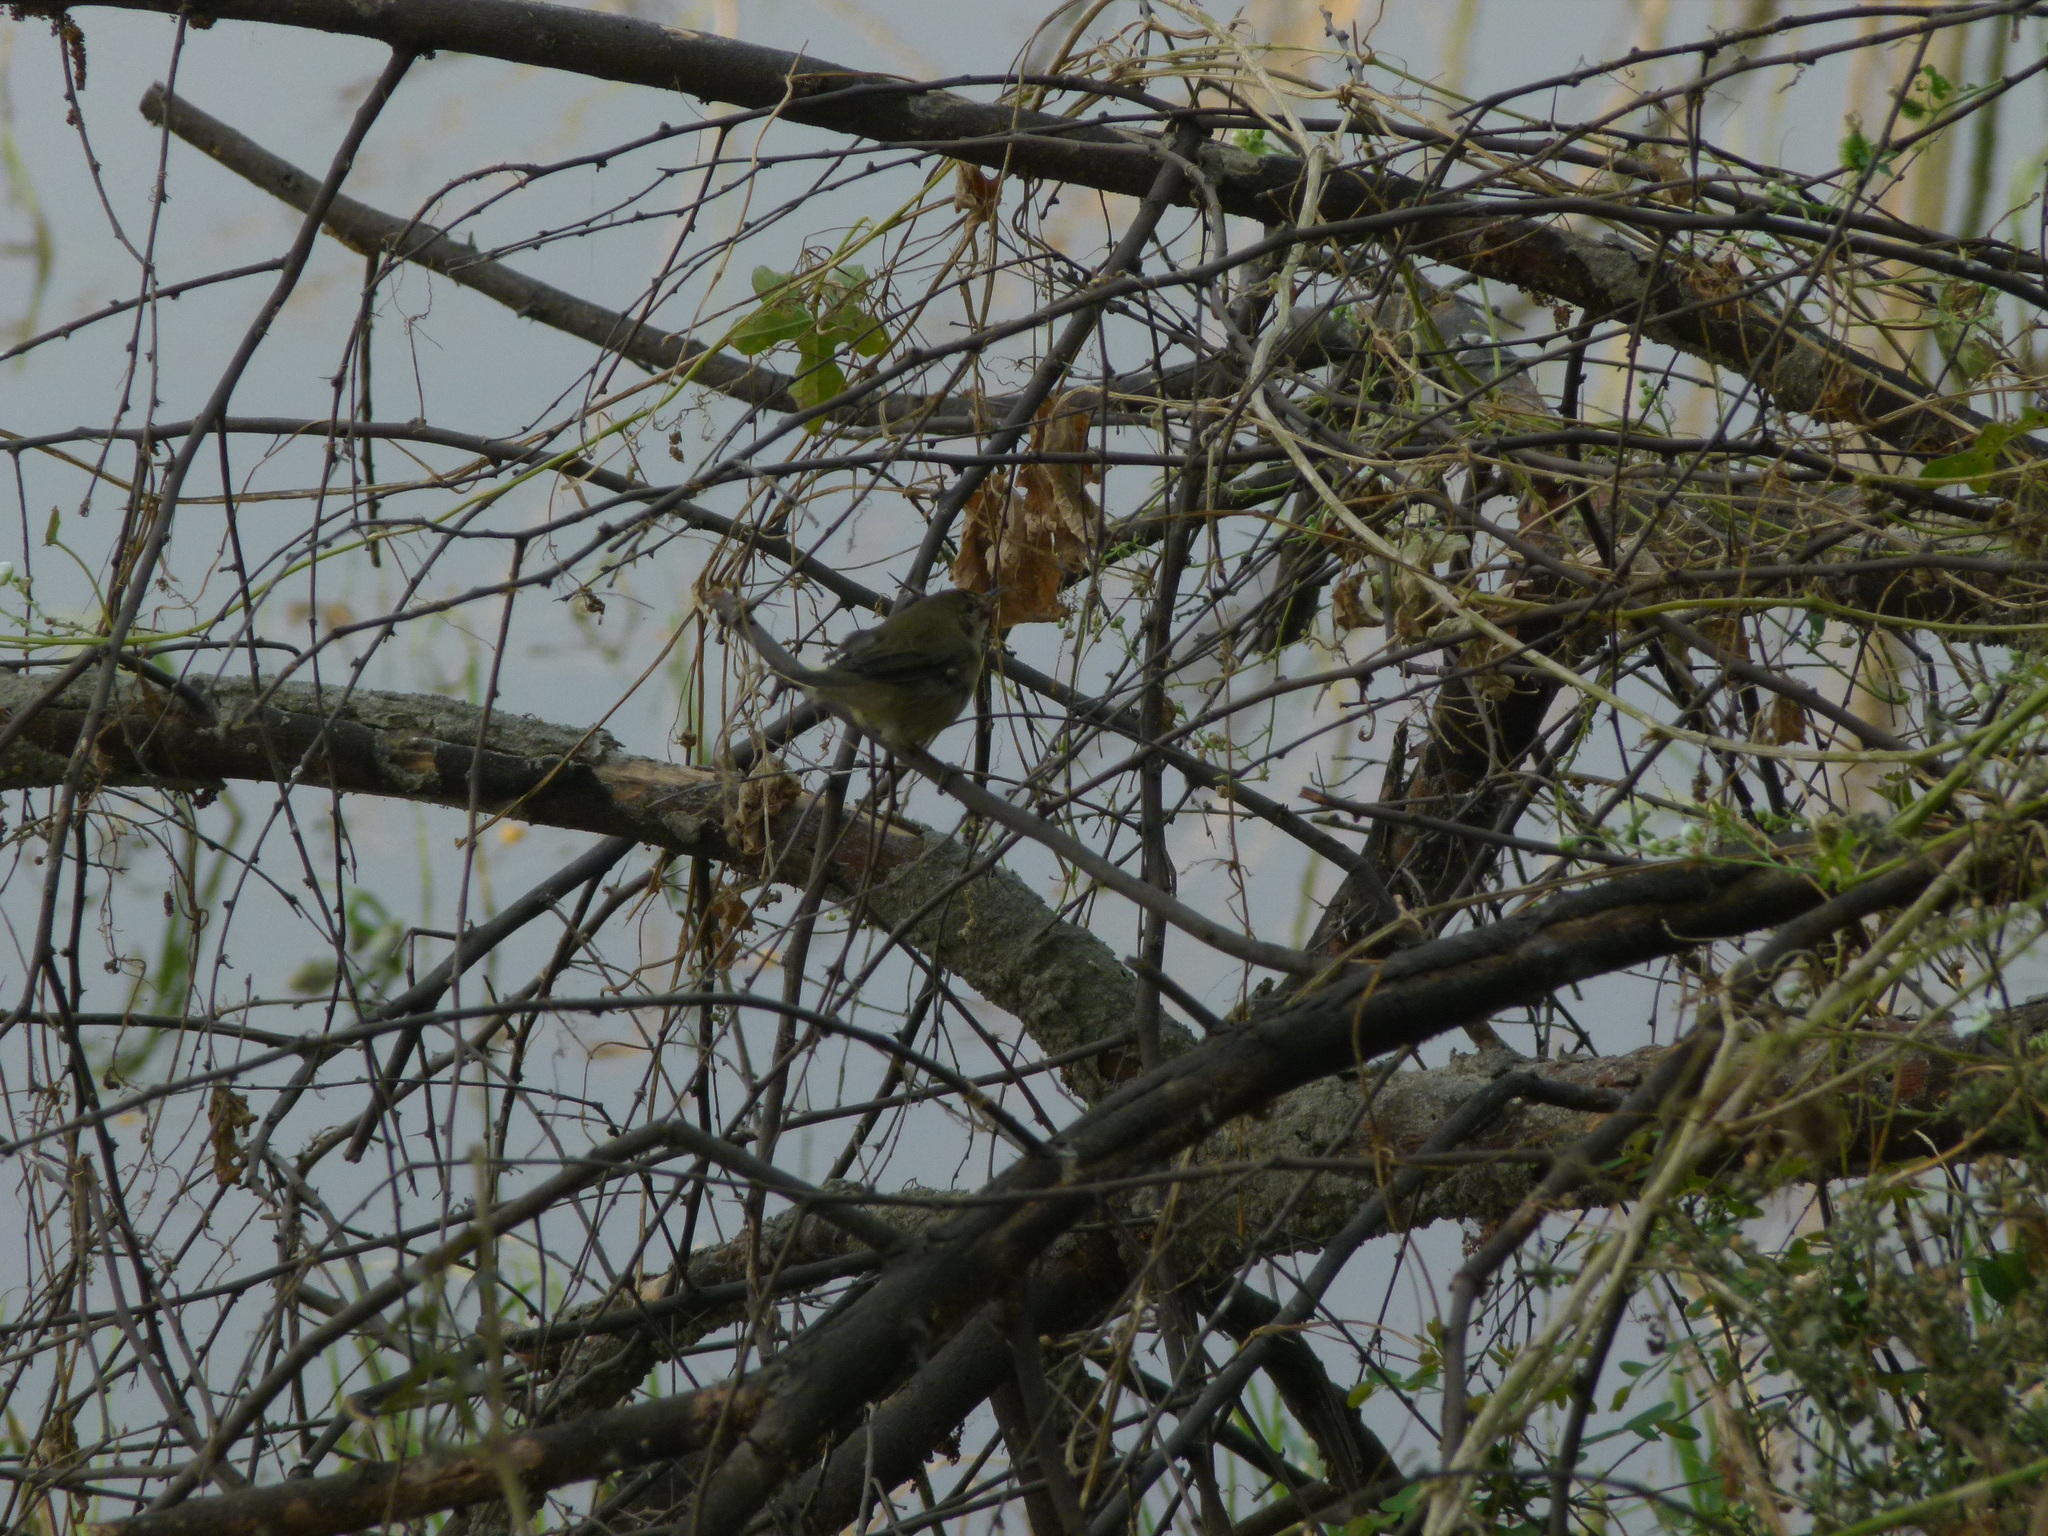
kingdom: Animalia
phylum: Chordata
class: Aves
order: Passeriformes
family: Phylloscopidae
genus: Phylloscopus
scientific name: Phylloscopus collybita
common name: Common chiffchaff
